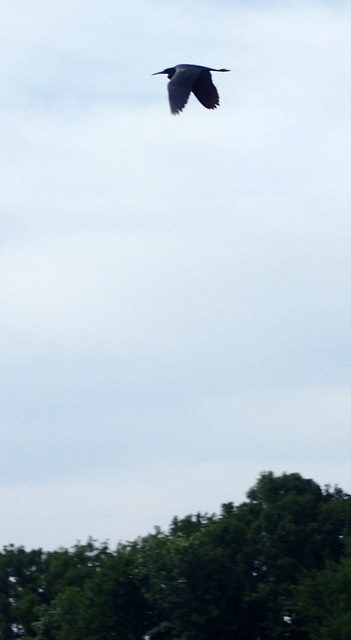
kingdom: Animalia
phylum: Chordata
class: Aves
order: Pelecaniformes
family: Ardeidae
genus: Egretta
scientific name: Egretta caerulea
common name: Little blue heron
